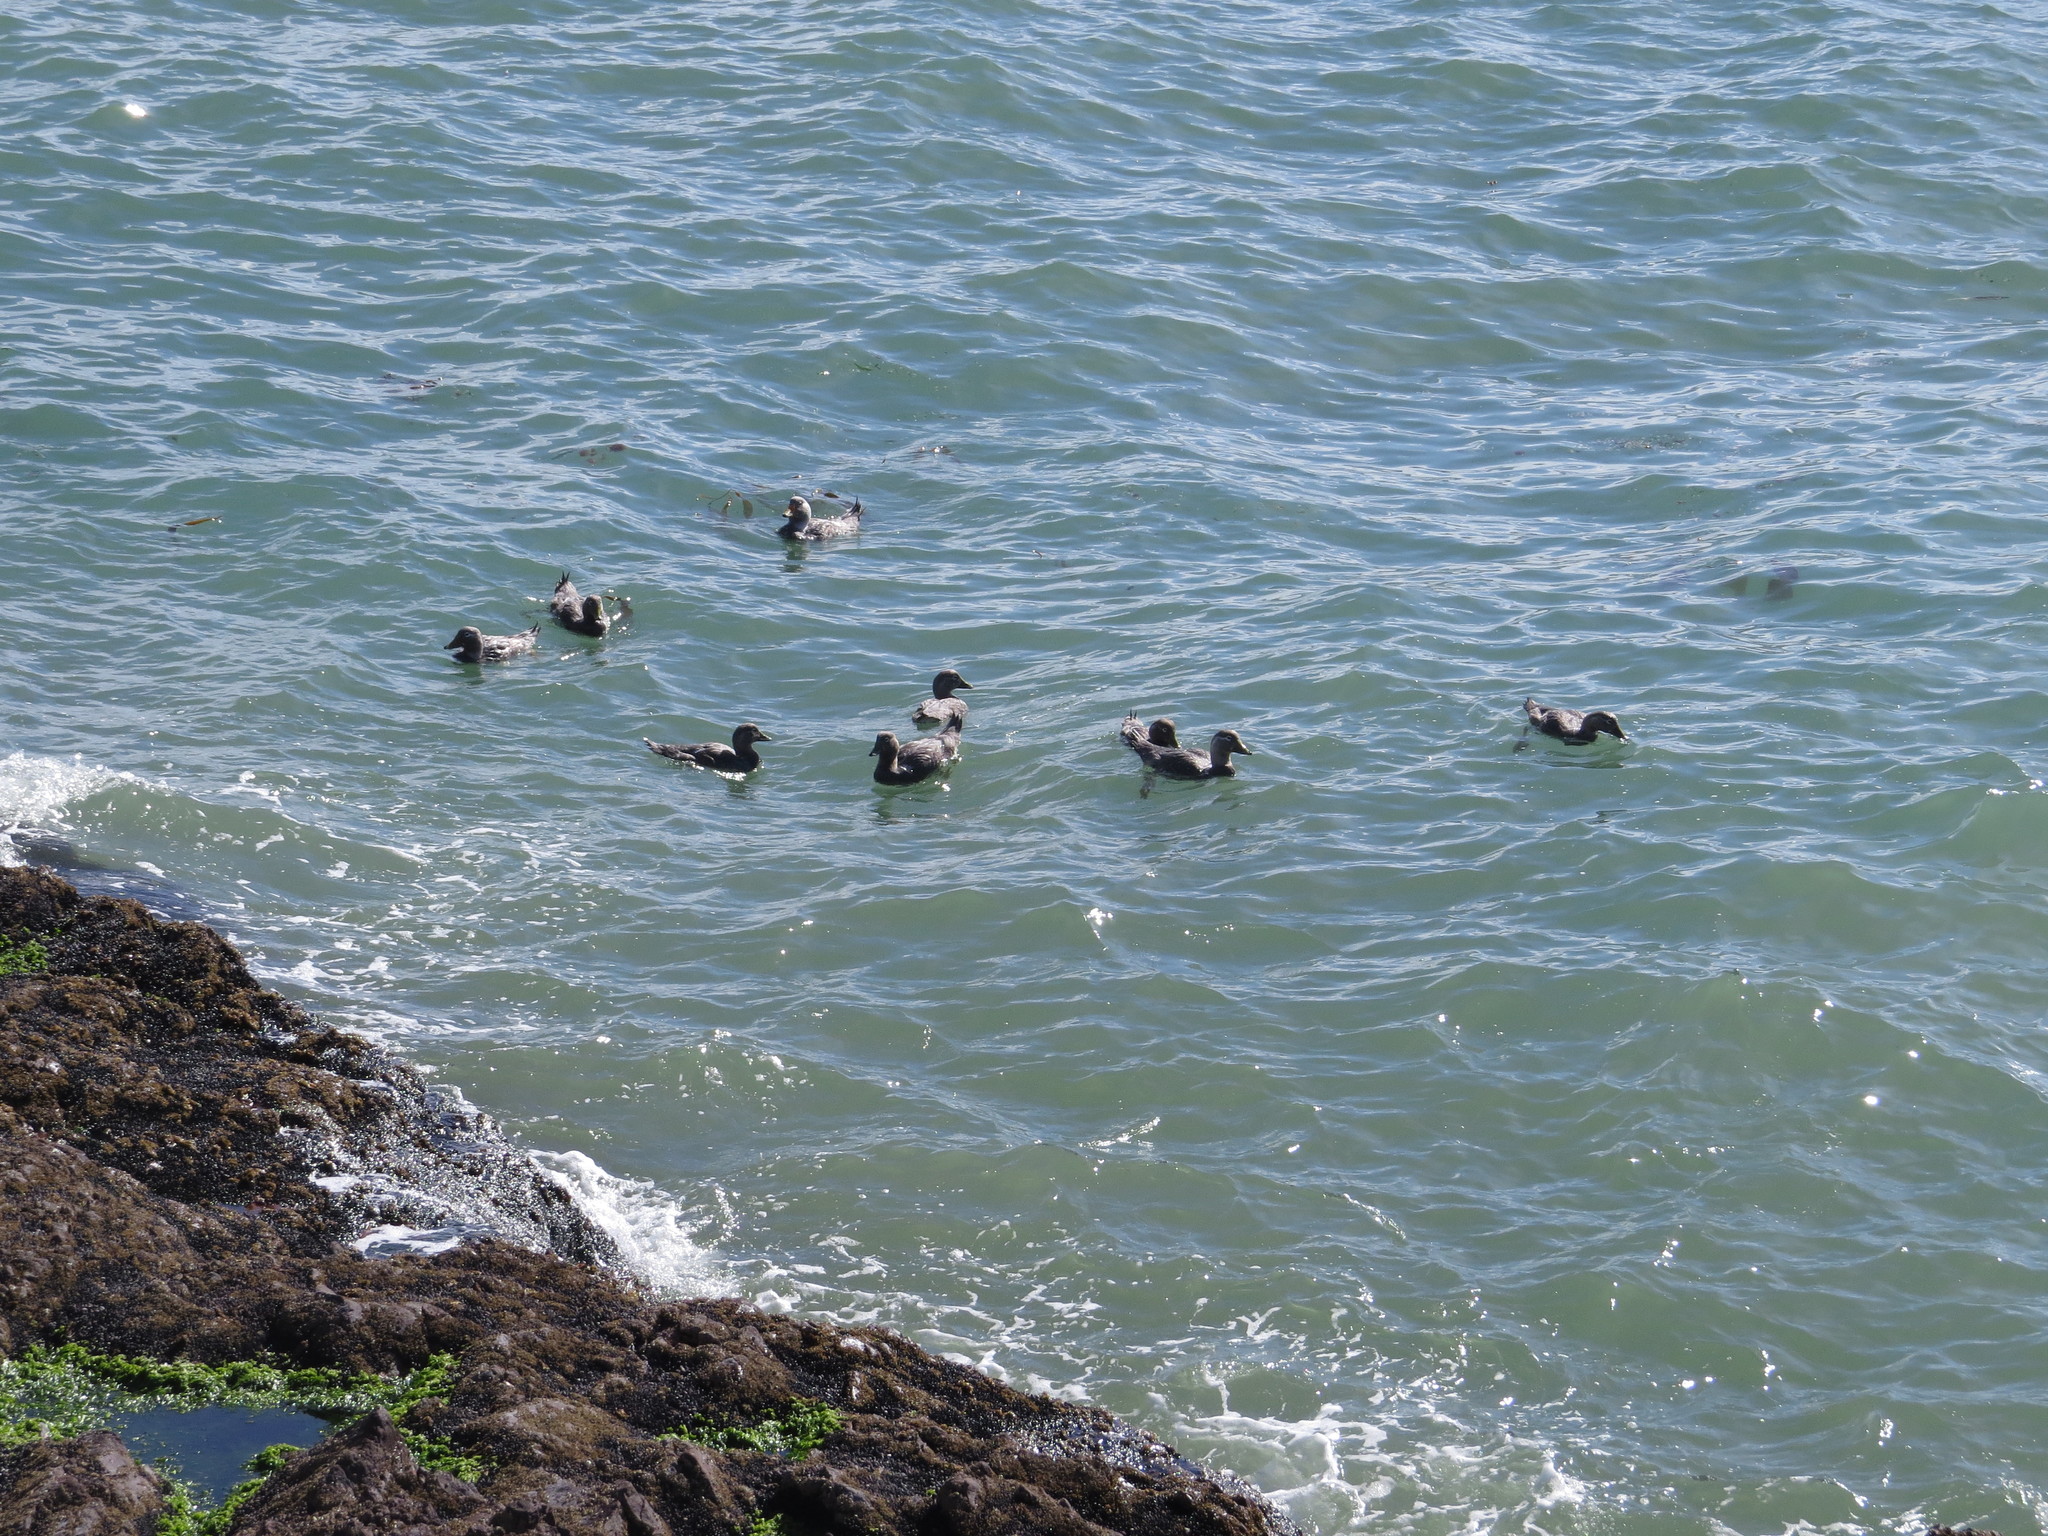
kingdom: Animalia
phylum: Chordata
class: Aves
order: Anseriformes
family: Anatidae
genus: Tachyeres
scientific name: Tachyeres leucocephalus
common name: Chubut steamer duck
